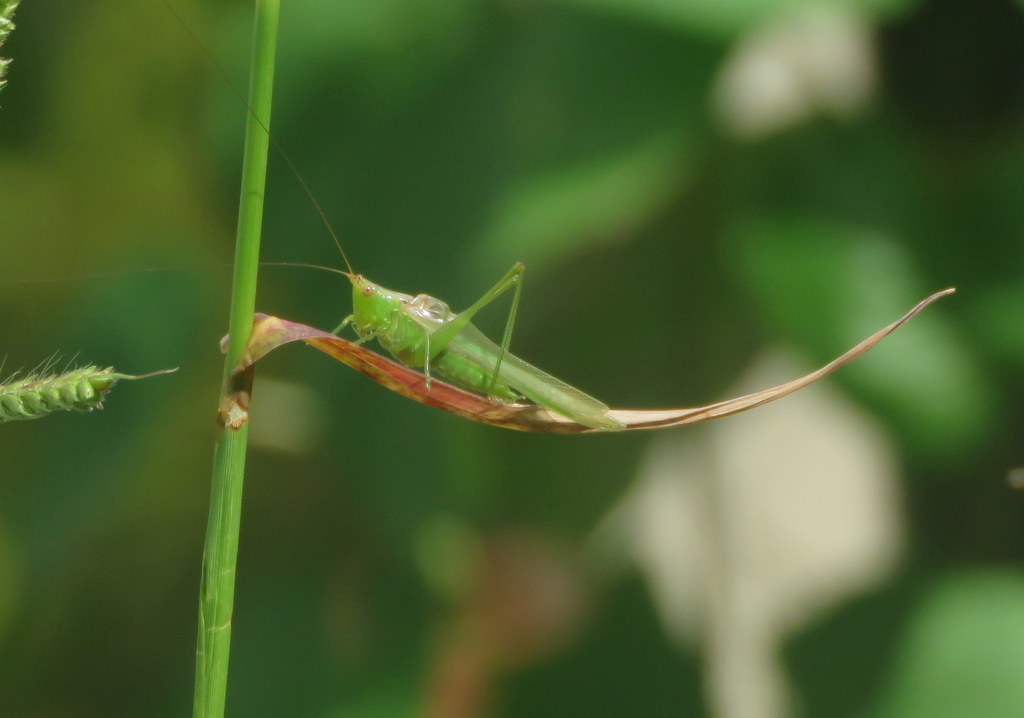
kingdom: Animalia
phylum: Arthropoda
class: Insecta
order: Orthoptera
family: Tettigoniidae
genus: Conocephalus
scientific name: Conocephalus longipes
